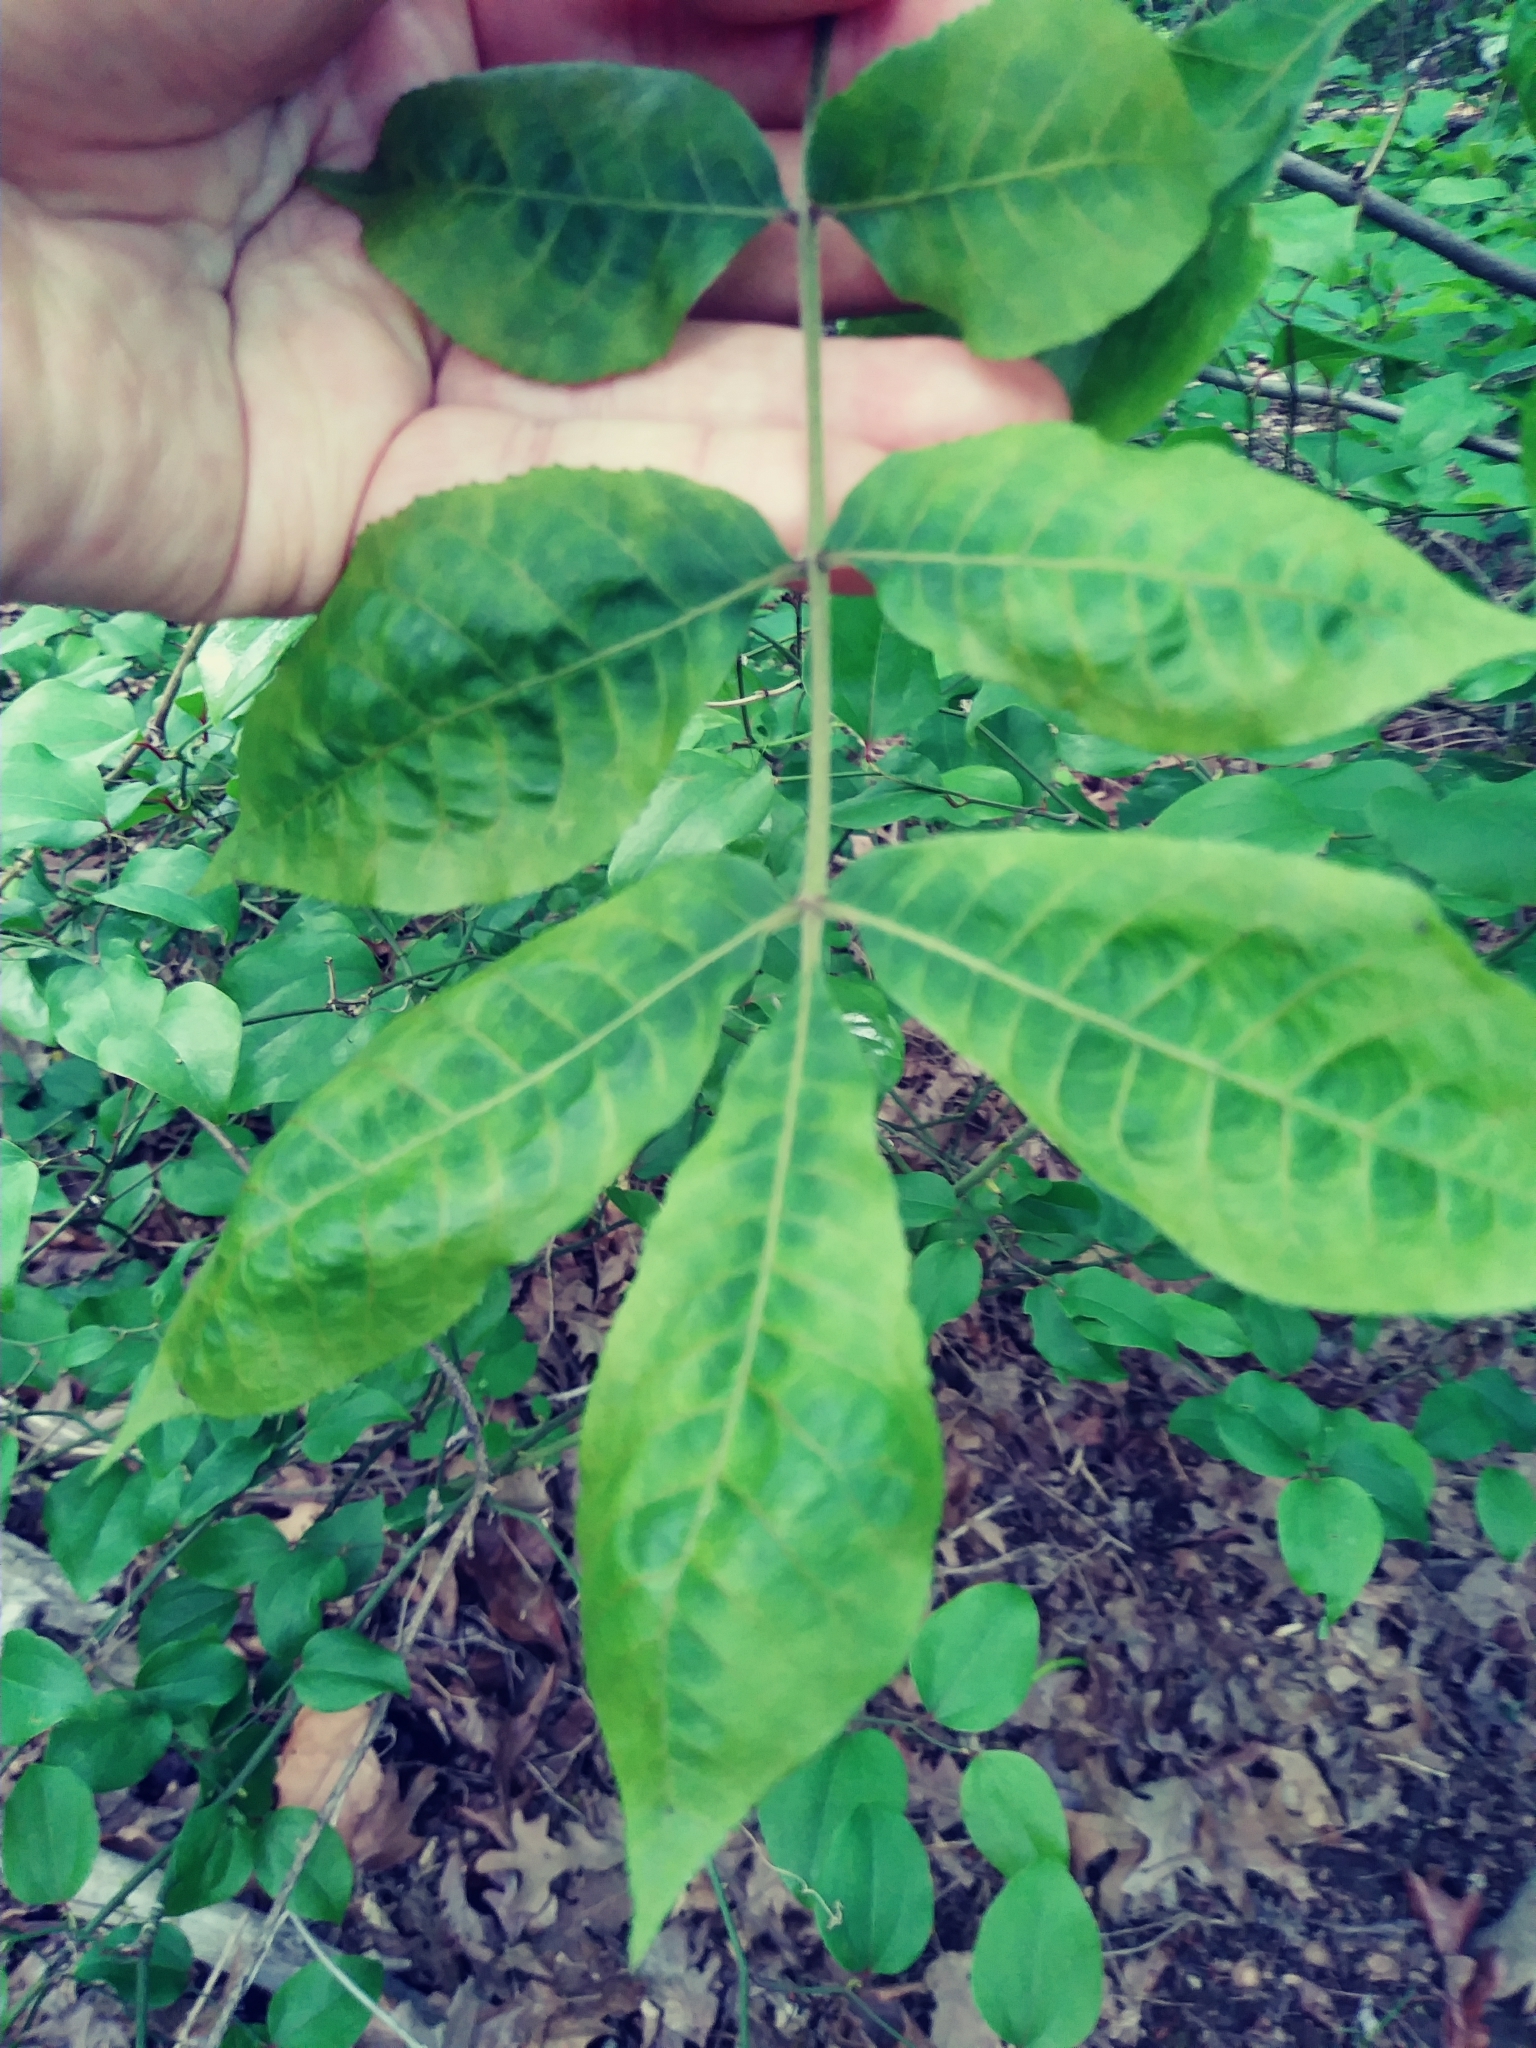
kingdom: Animalia
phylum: Arthropoda
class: Insecta
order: Hemiptera
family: Phylloxeridae
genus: Phylloxera
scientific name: Phylloxera spinosa
